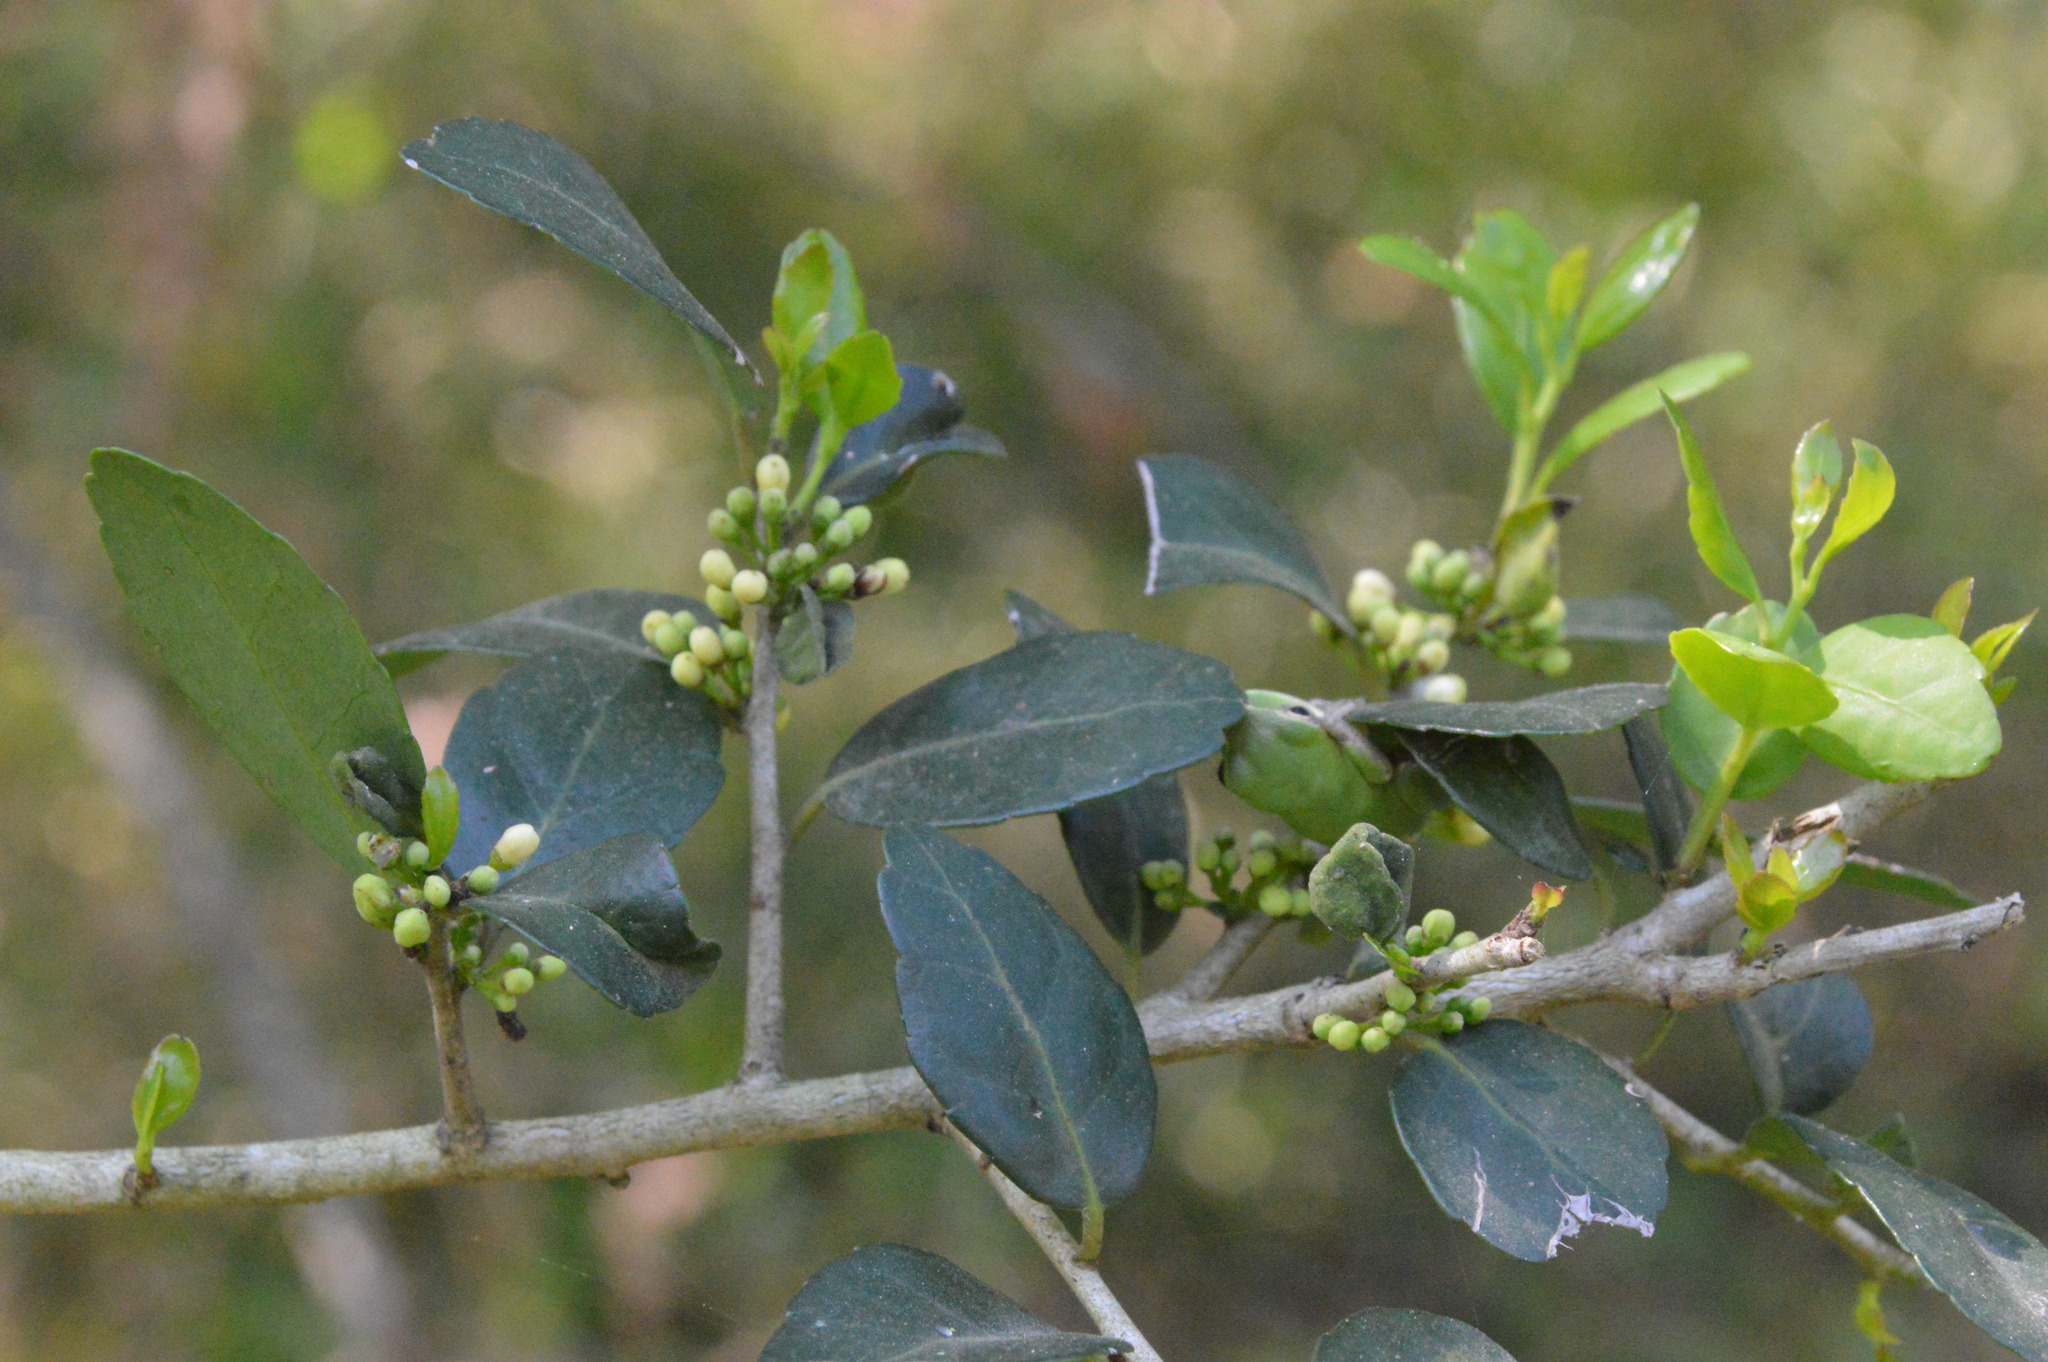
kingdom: Plantae
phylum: Tracheophyta
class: Magnoliopsida
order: Aquifoliales
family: Aquifoliaceae
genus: Ilex
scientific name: Ilex vomitoria
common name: Yaupon holly
